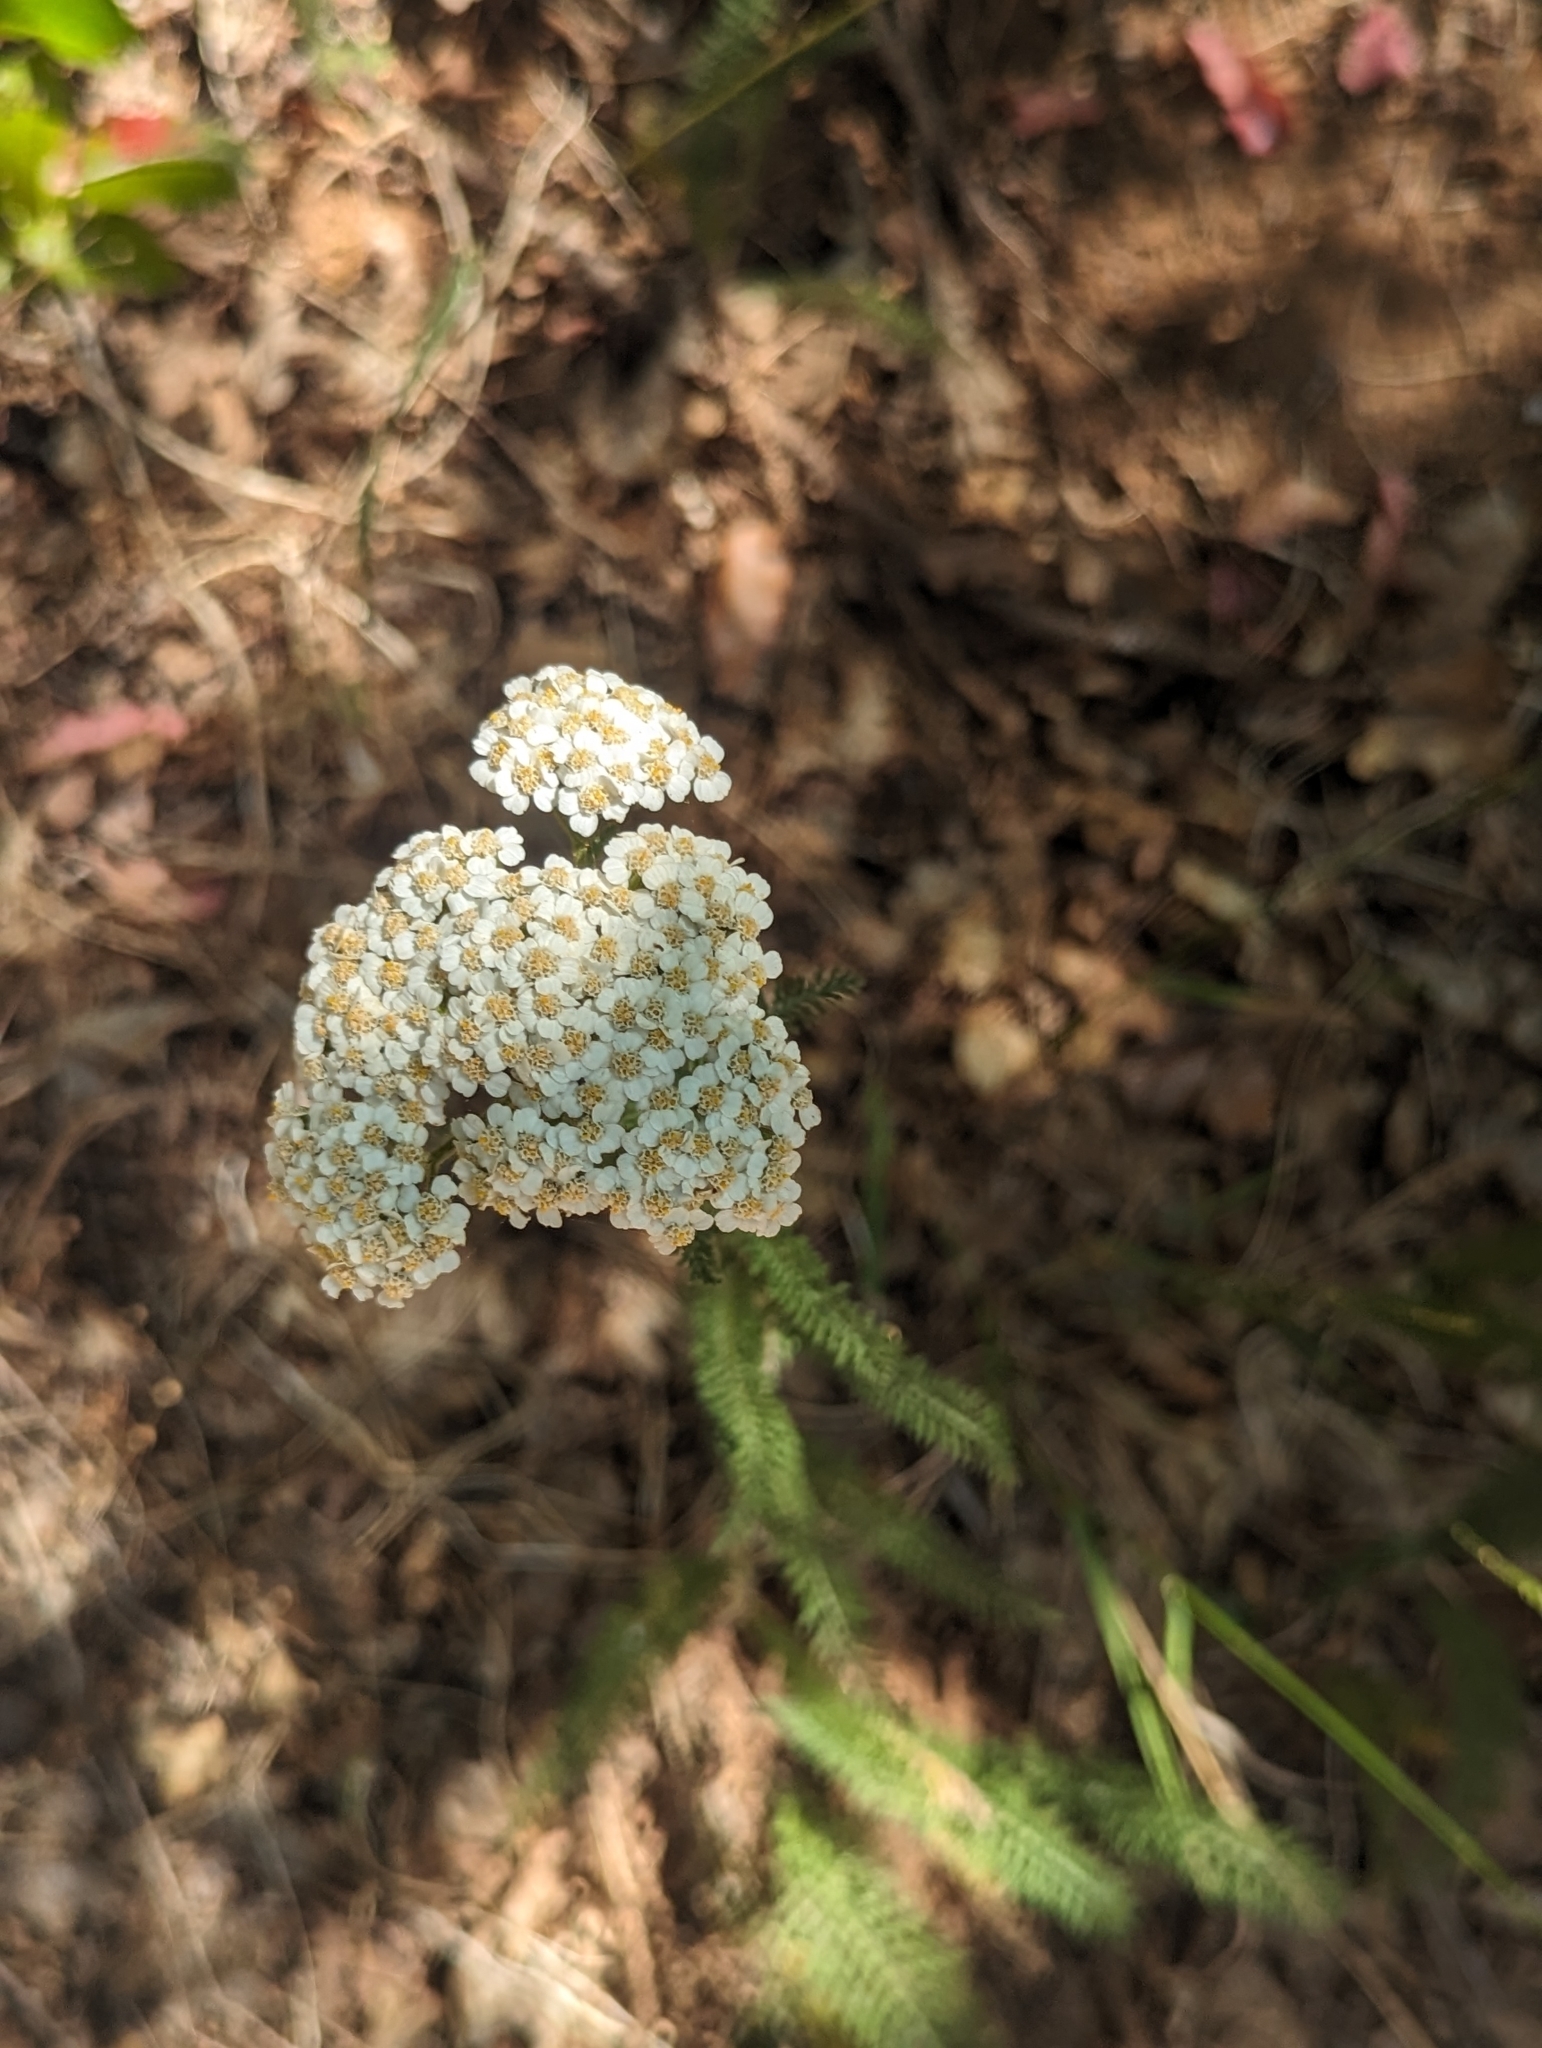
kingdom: Plantae
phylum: Tracheophyta
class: Magnoliopsida
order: Asterales
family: Asteraceae
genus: Achillea
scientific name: Achillea millefolium
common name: Yarrow
